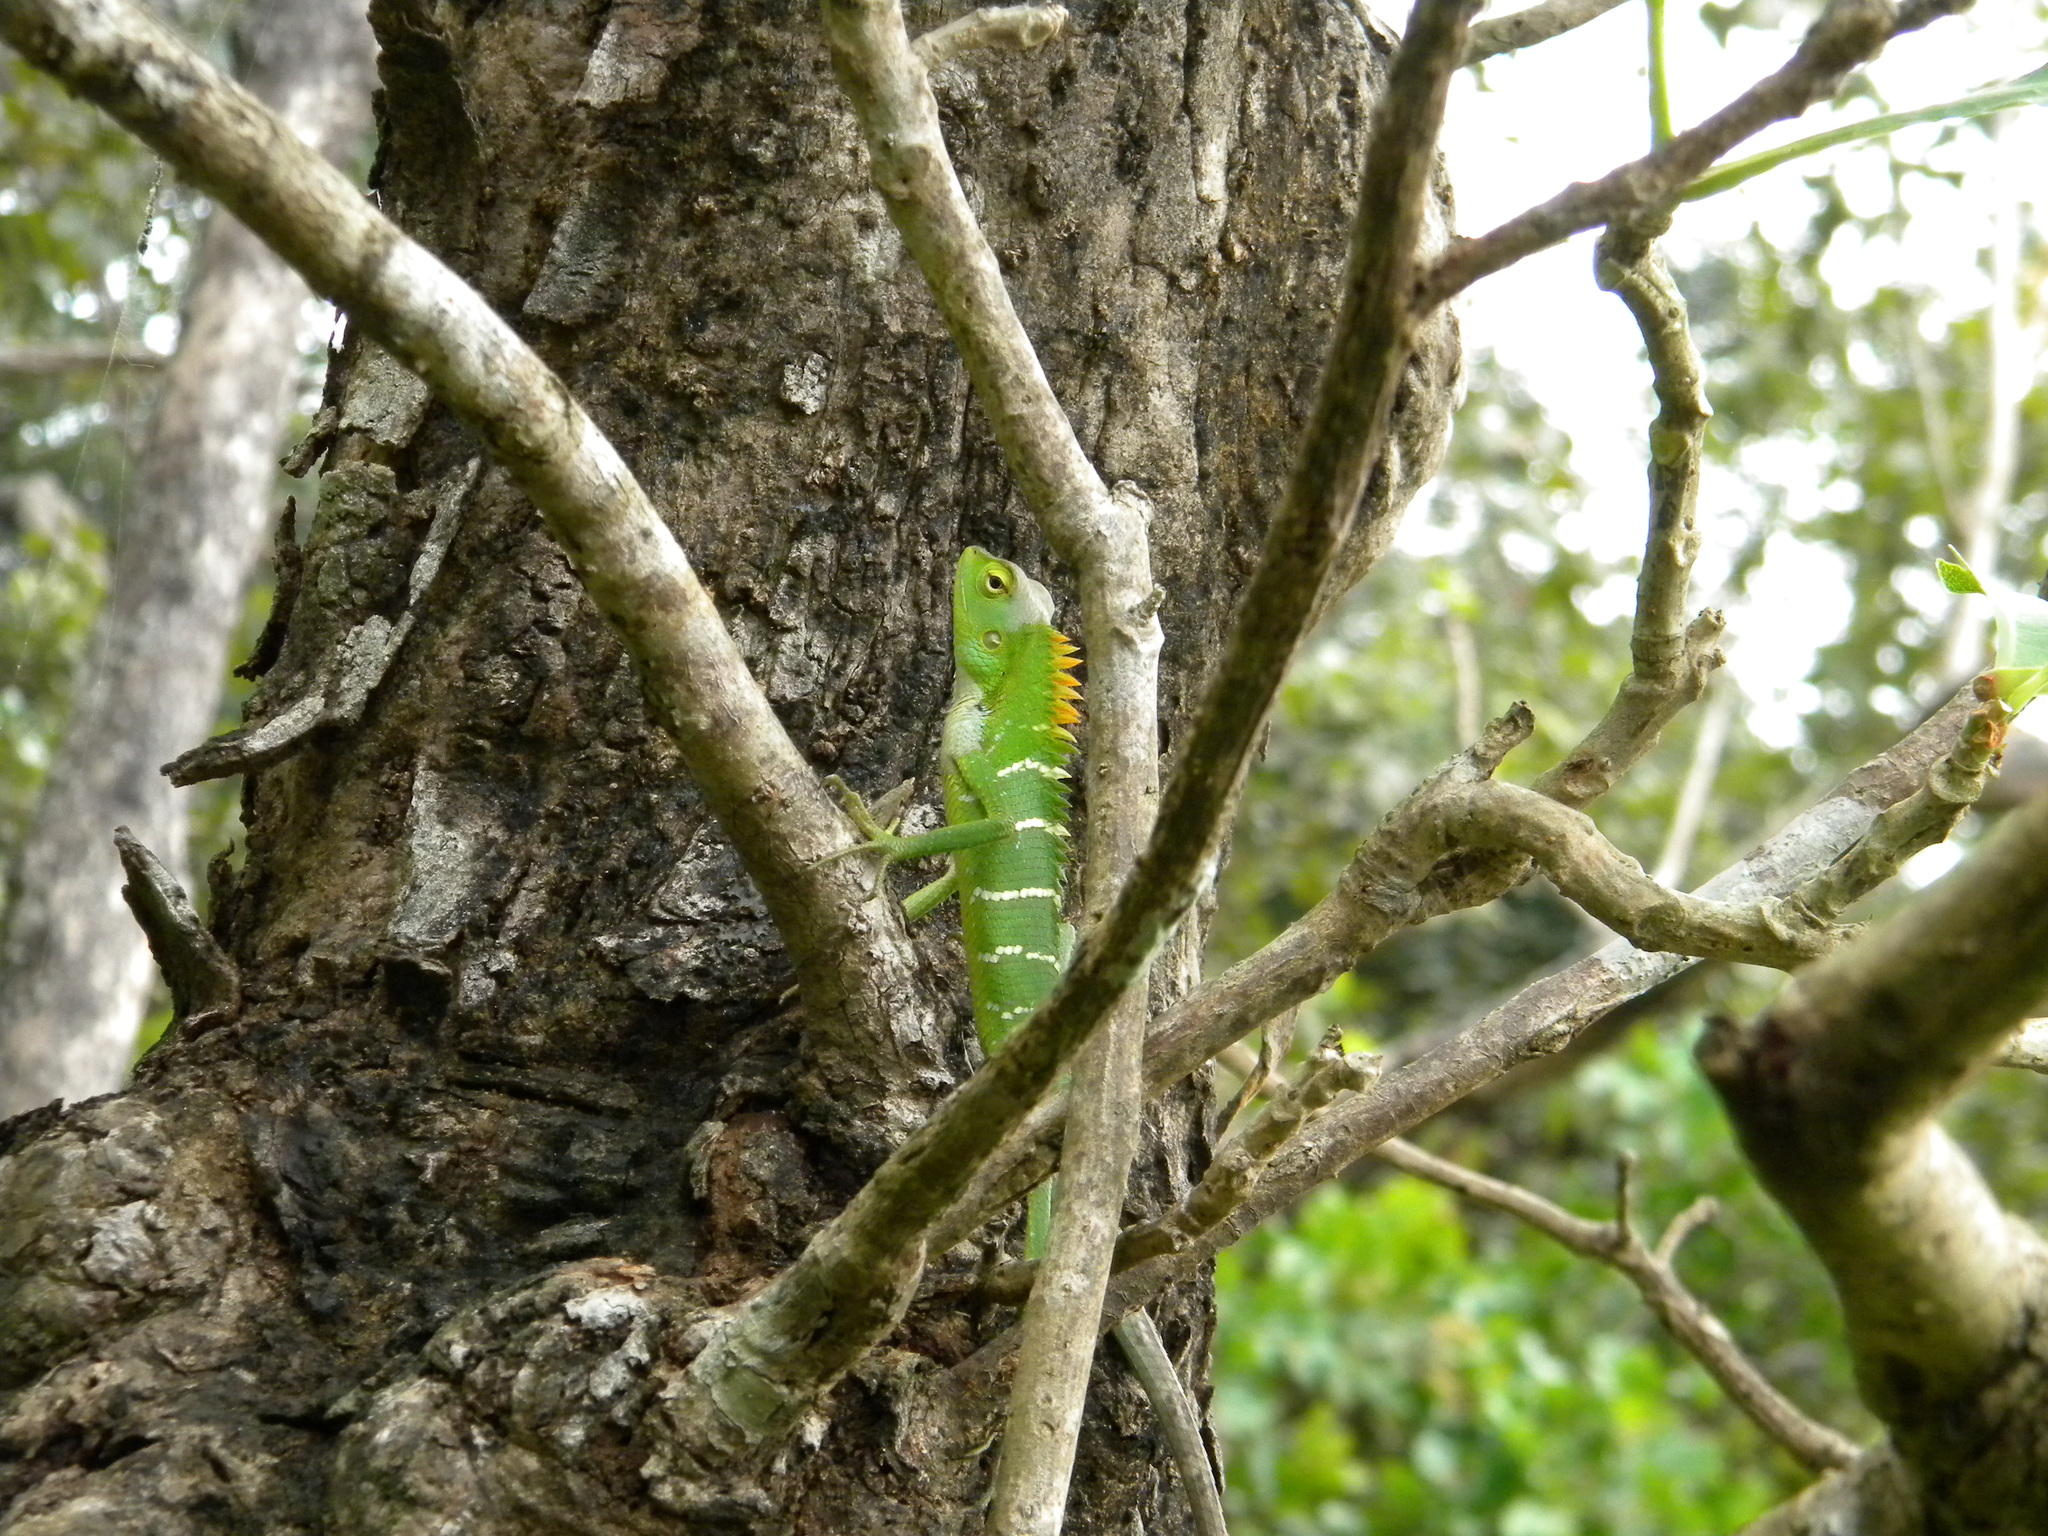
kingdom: Animalia
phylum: Chordata
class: Squamata
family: Agamidae
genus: Calotes
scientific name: Calotes calotes
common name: Common green forest lizard
